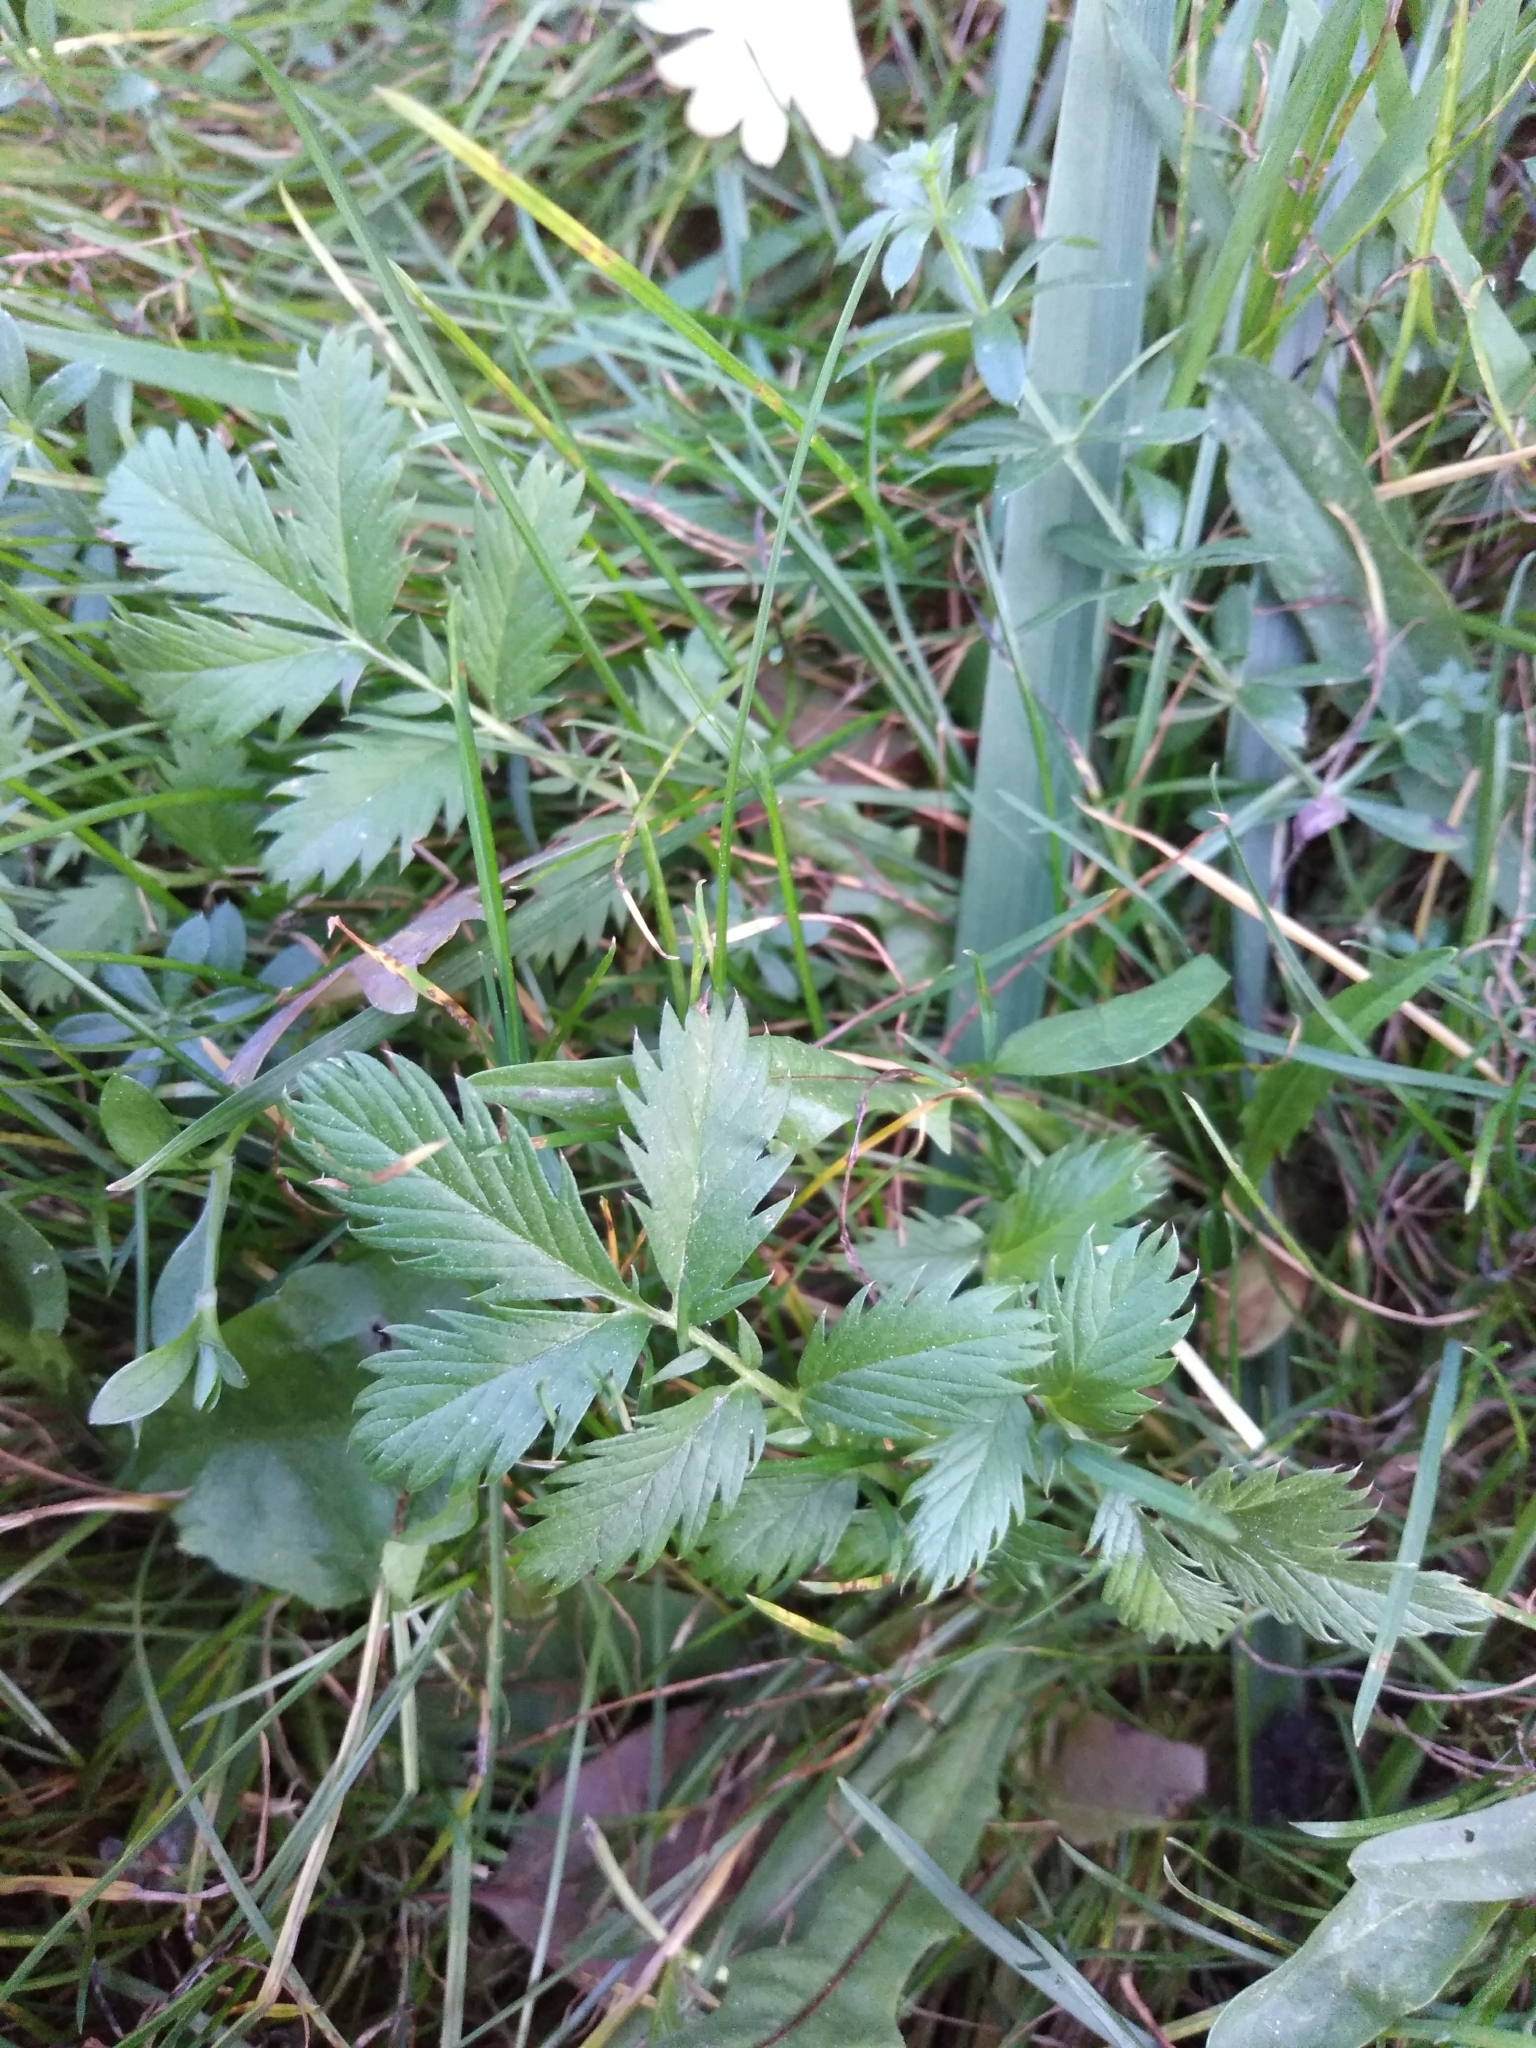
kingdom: Plantae
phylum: Tracheophyta
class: Magnoliopsida
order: Rosales
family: Rosaceae
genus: Argentina
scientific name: Argentina anserina
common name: Common silverweed
